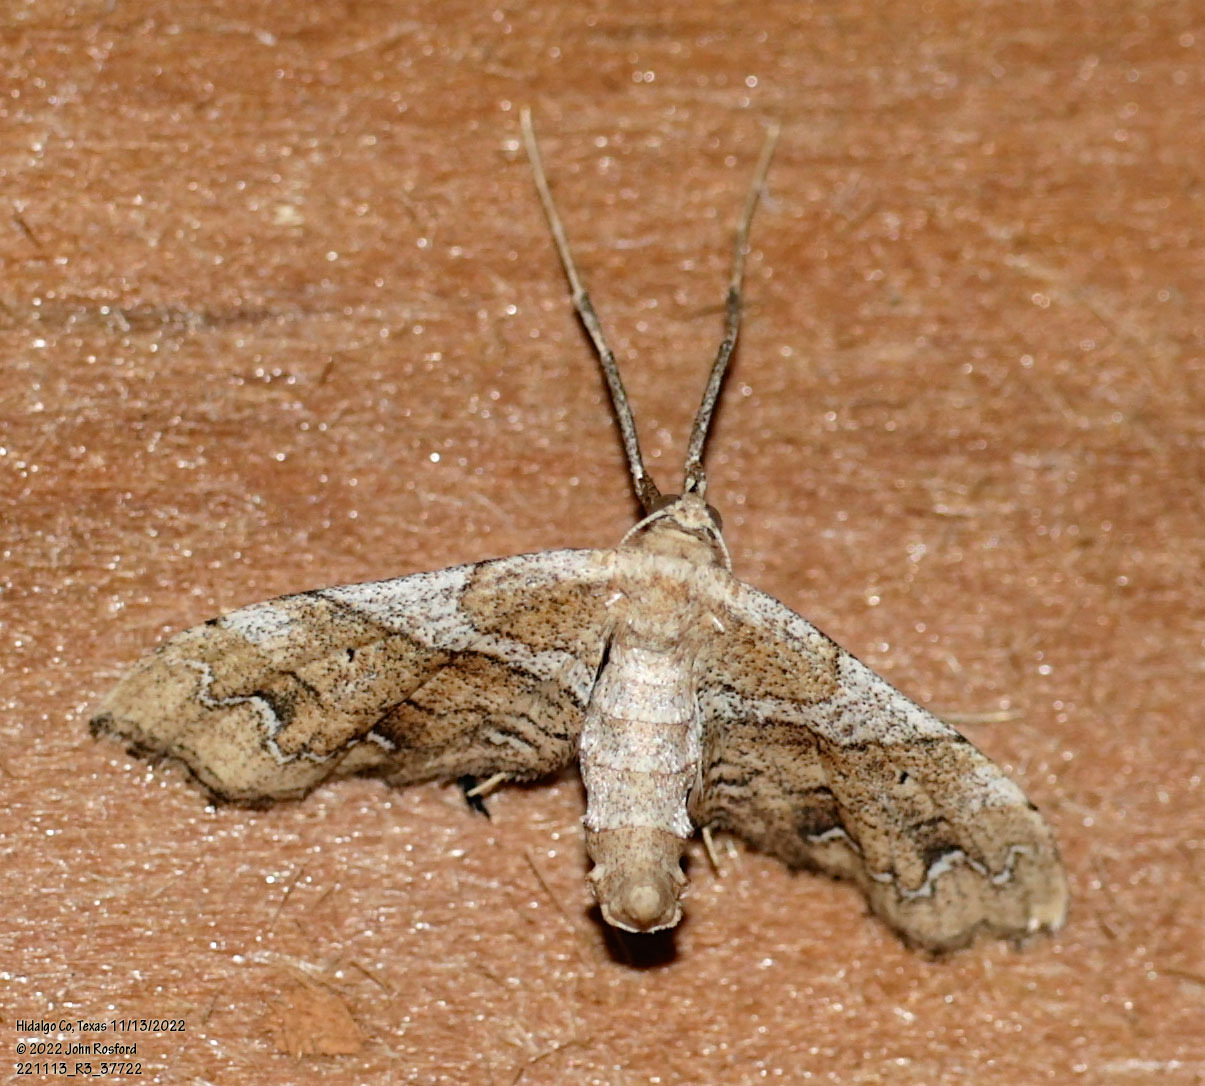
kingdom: Animalia
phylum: Arthropoda
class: Insecta
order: Lepidoptera
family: Geometridae
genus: Odontoptila
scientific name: Odontoptila obrimo
